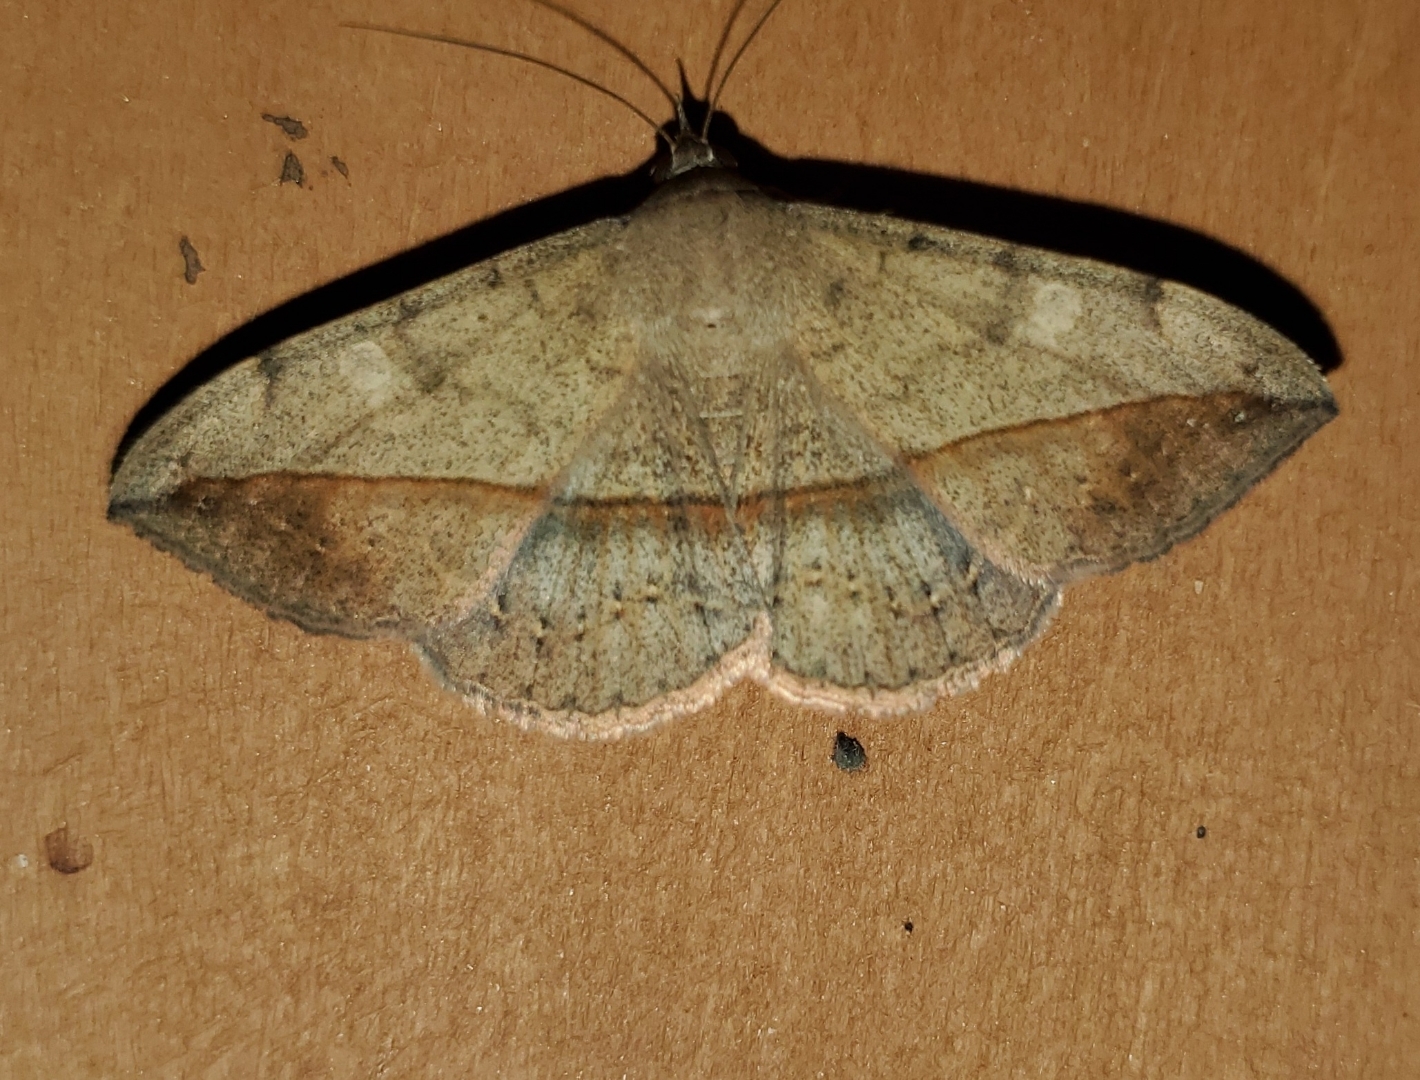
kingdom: Animalia
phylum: Arthropoda
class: Insecta
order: Lepidoptera
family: Erebidae
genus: Anticarsia
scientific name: Anticarsia gemmatalis
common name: Cutworm moth
